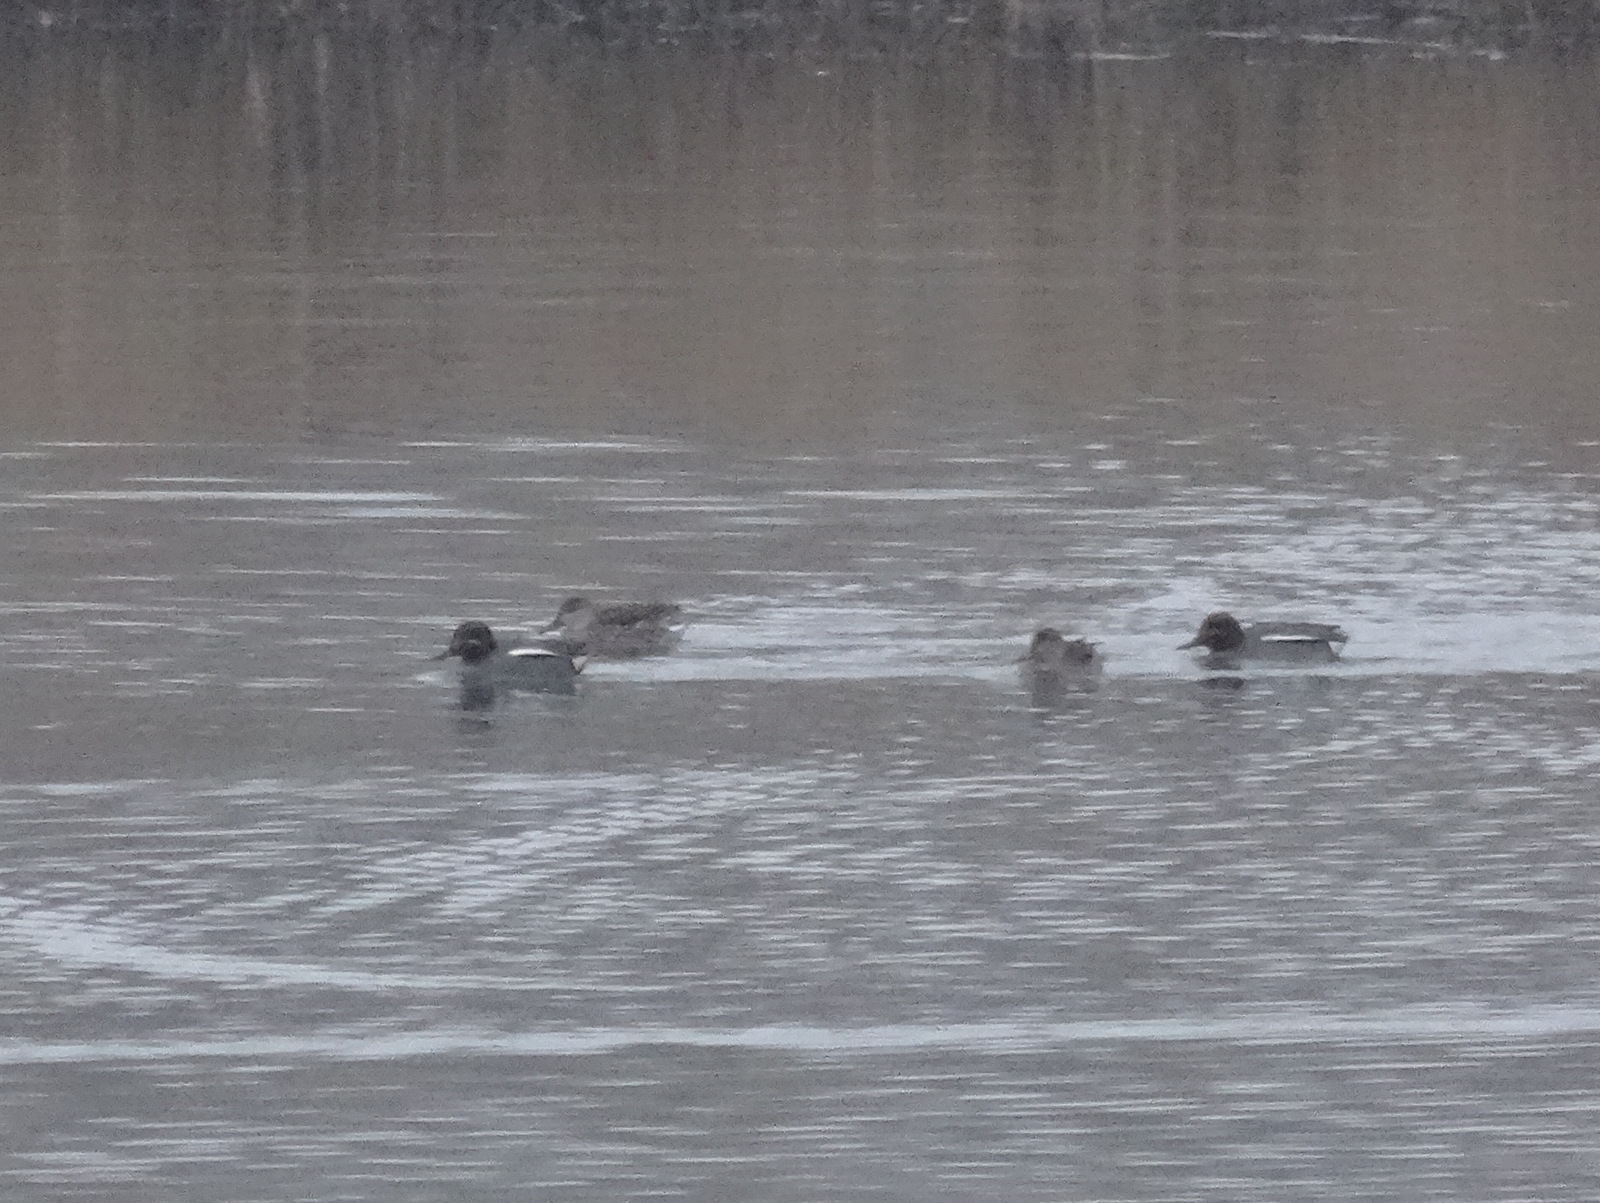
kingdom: Animalia
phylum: Chordata
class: Aves
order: Anseriformes
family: Anatidae
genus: Anas
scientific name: Anas crecca
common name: Eurasian teal
